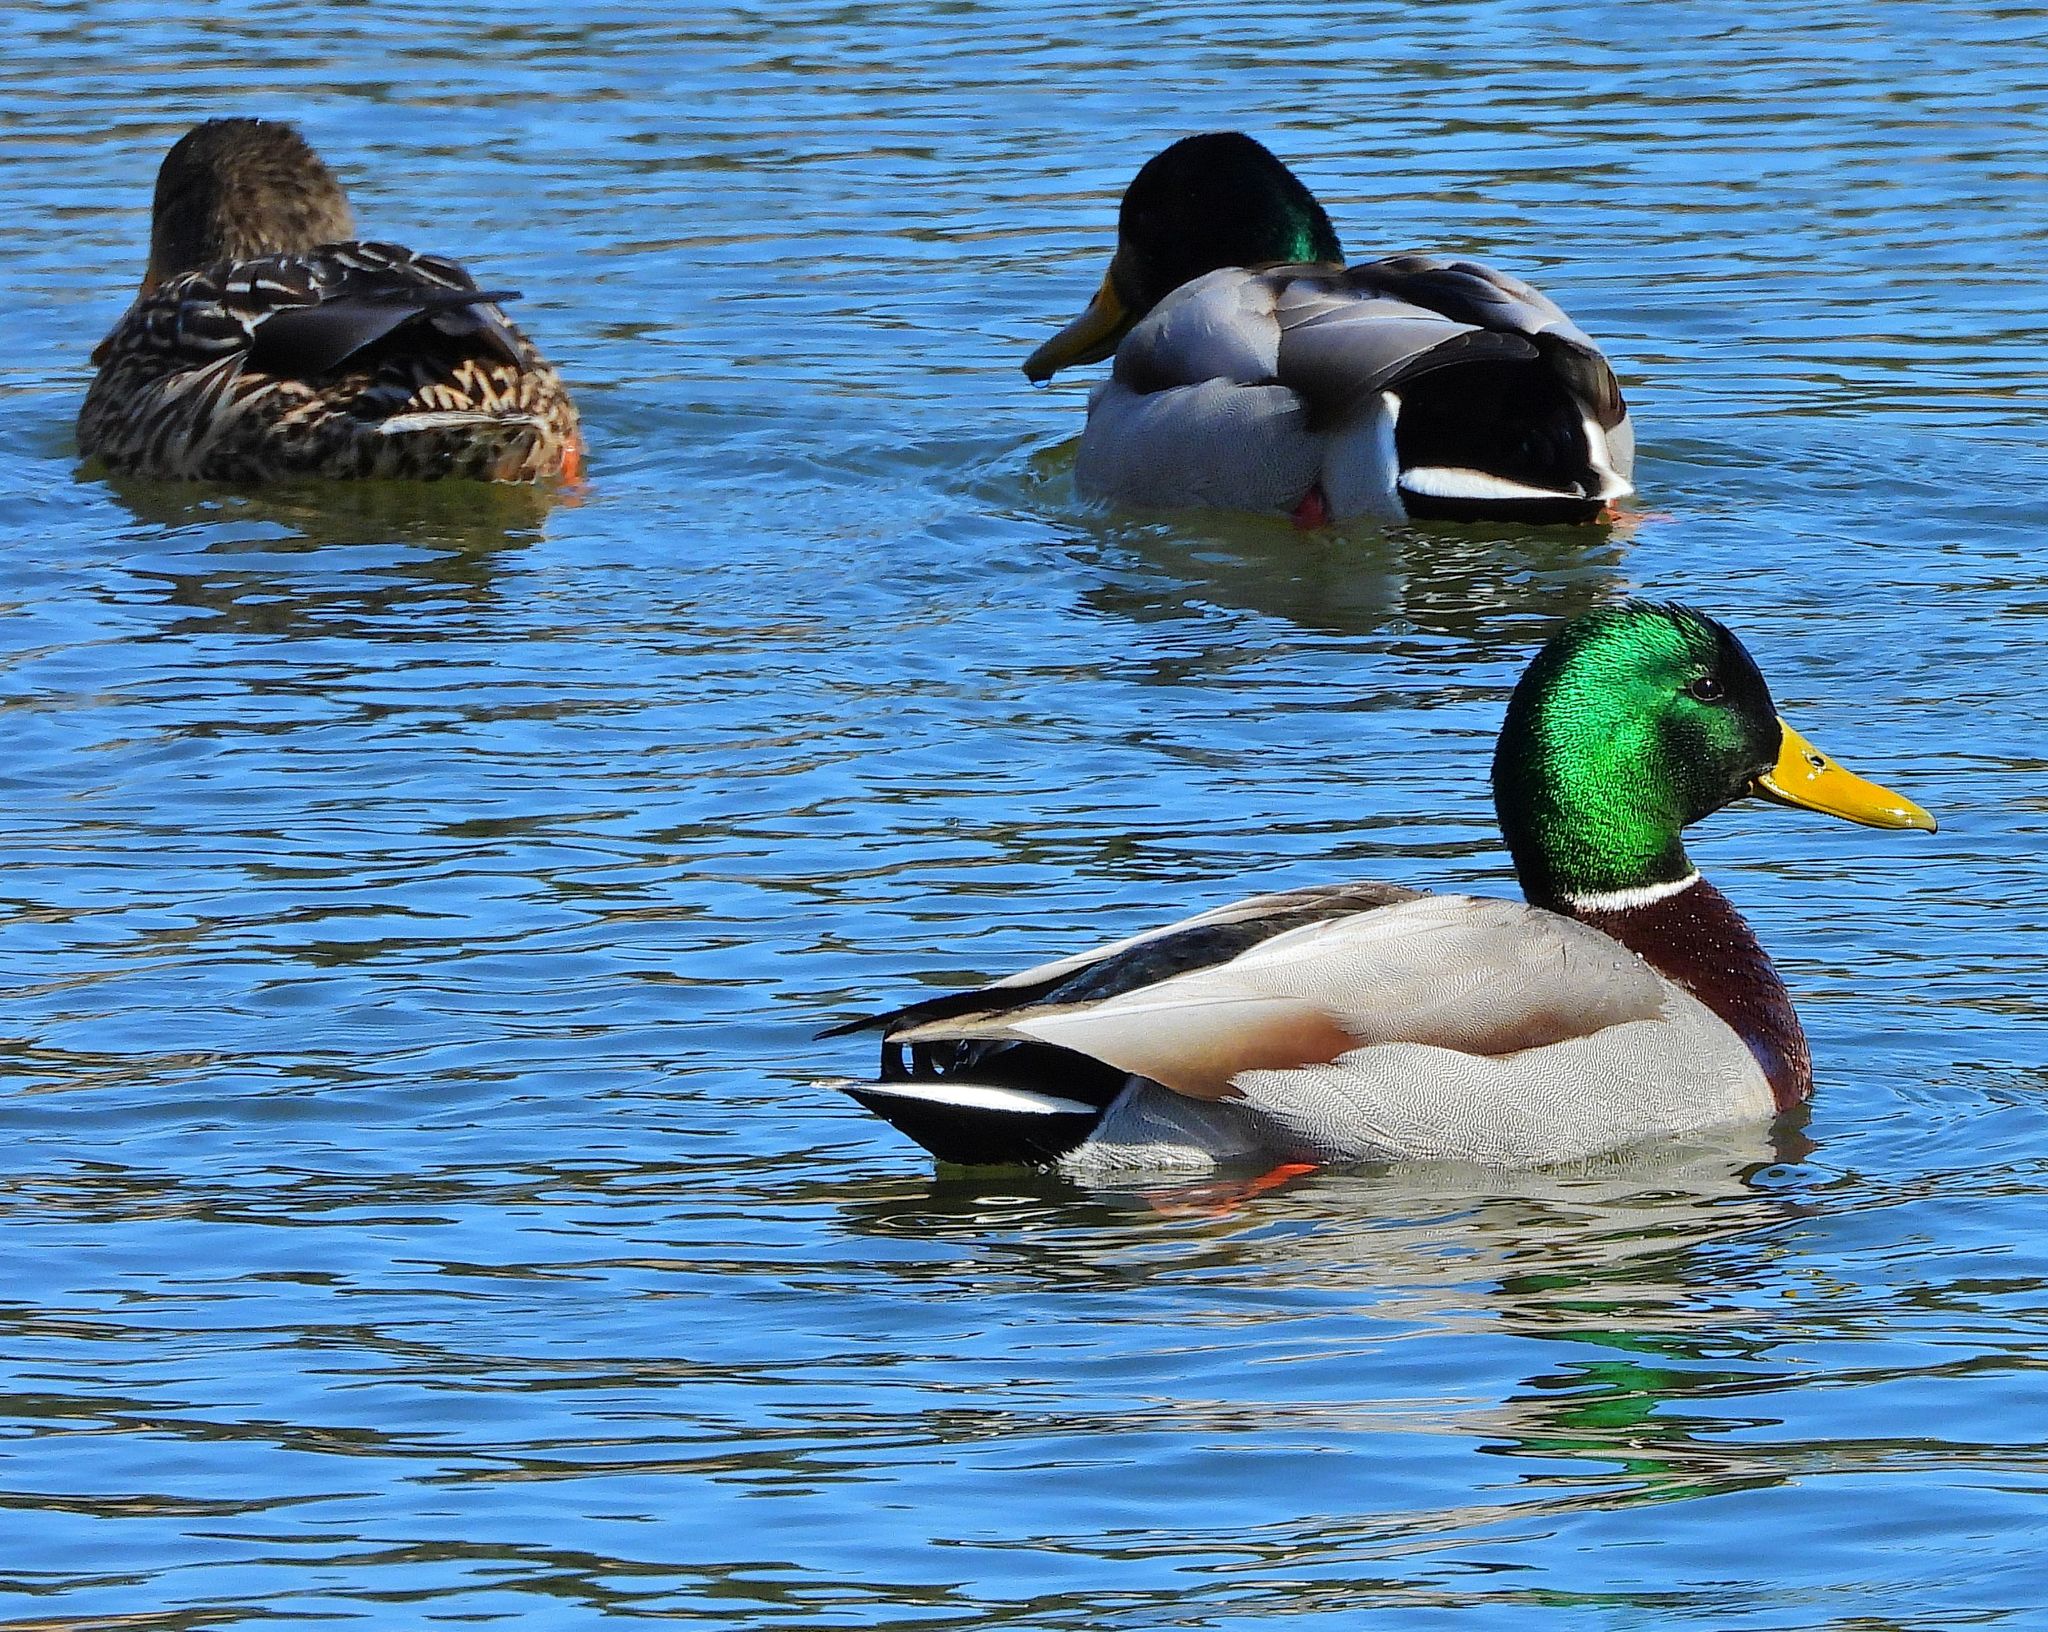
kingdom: Animalia
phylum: Chordata
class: Aves
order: Anseriformes
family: Anatidae
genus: Anas
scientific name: Anas platyrhynchos
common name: Mallard
